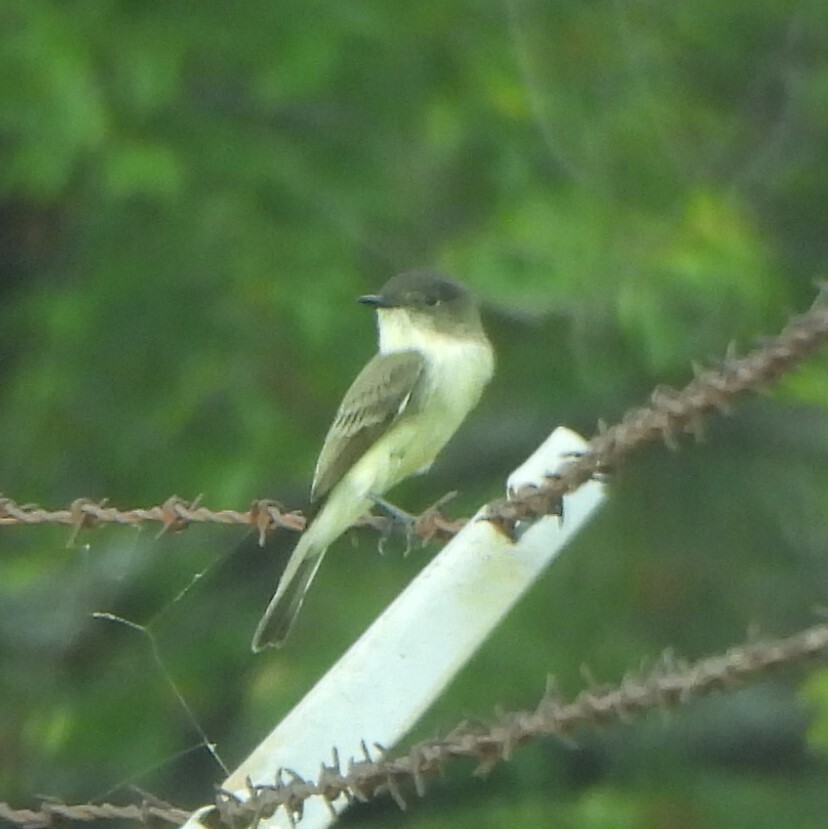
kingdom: Animalia
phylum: Chordata
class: Aves
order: Passeriformes
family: Tyrannidae
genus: Sayornis
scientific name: Sayornis phoebe
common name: Eastern phoebe
